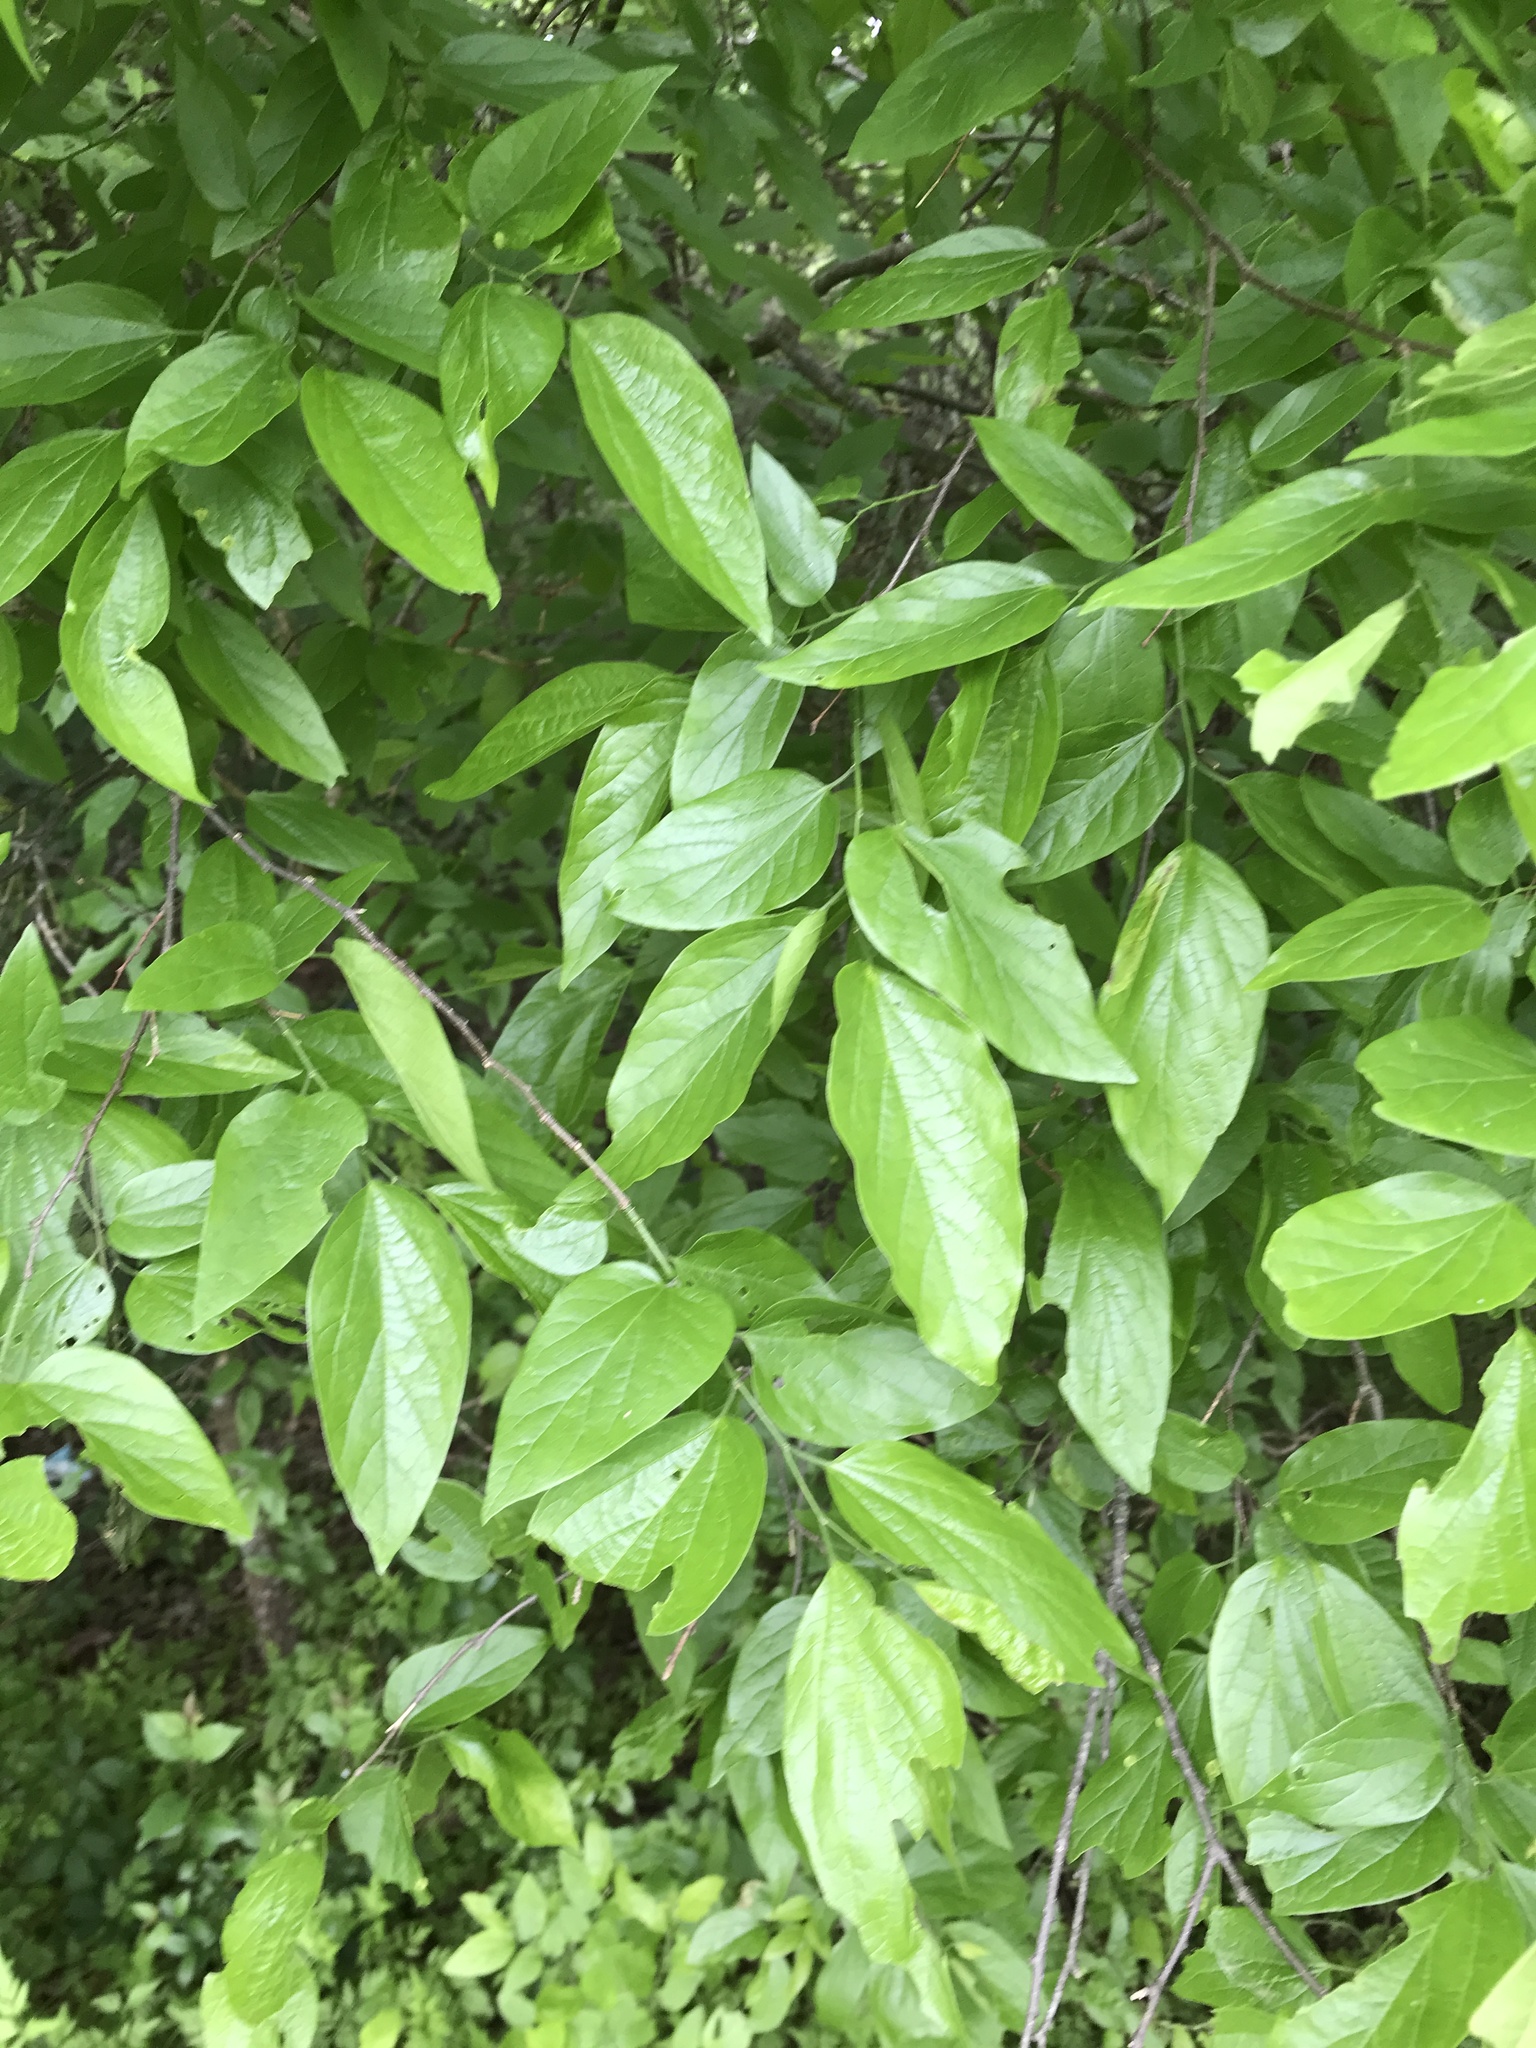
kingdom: Plantae
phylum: Tracheophyta
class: Magnoliopsida
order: Rosales
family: Cannabaceae
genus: Celtis
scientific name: Celtis laevigata
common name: Sugarberry
